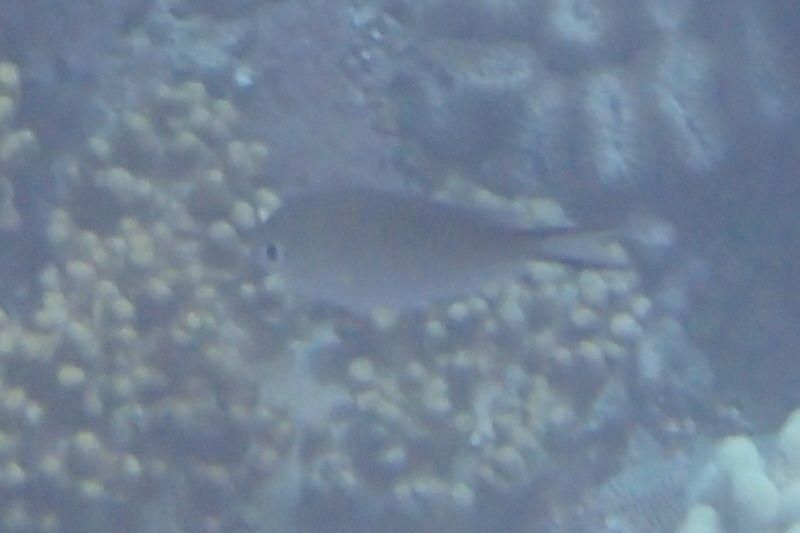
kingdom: Animalia
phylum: Chordata
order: Perciformes
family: Pomacentridae
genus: Chromis
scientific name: Chromis ternatensis
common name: Ternate chromis
